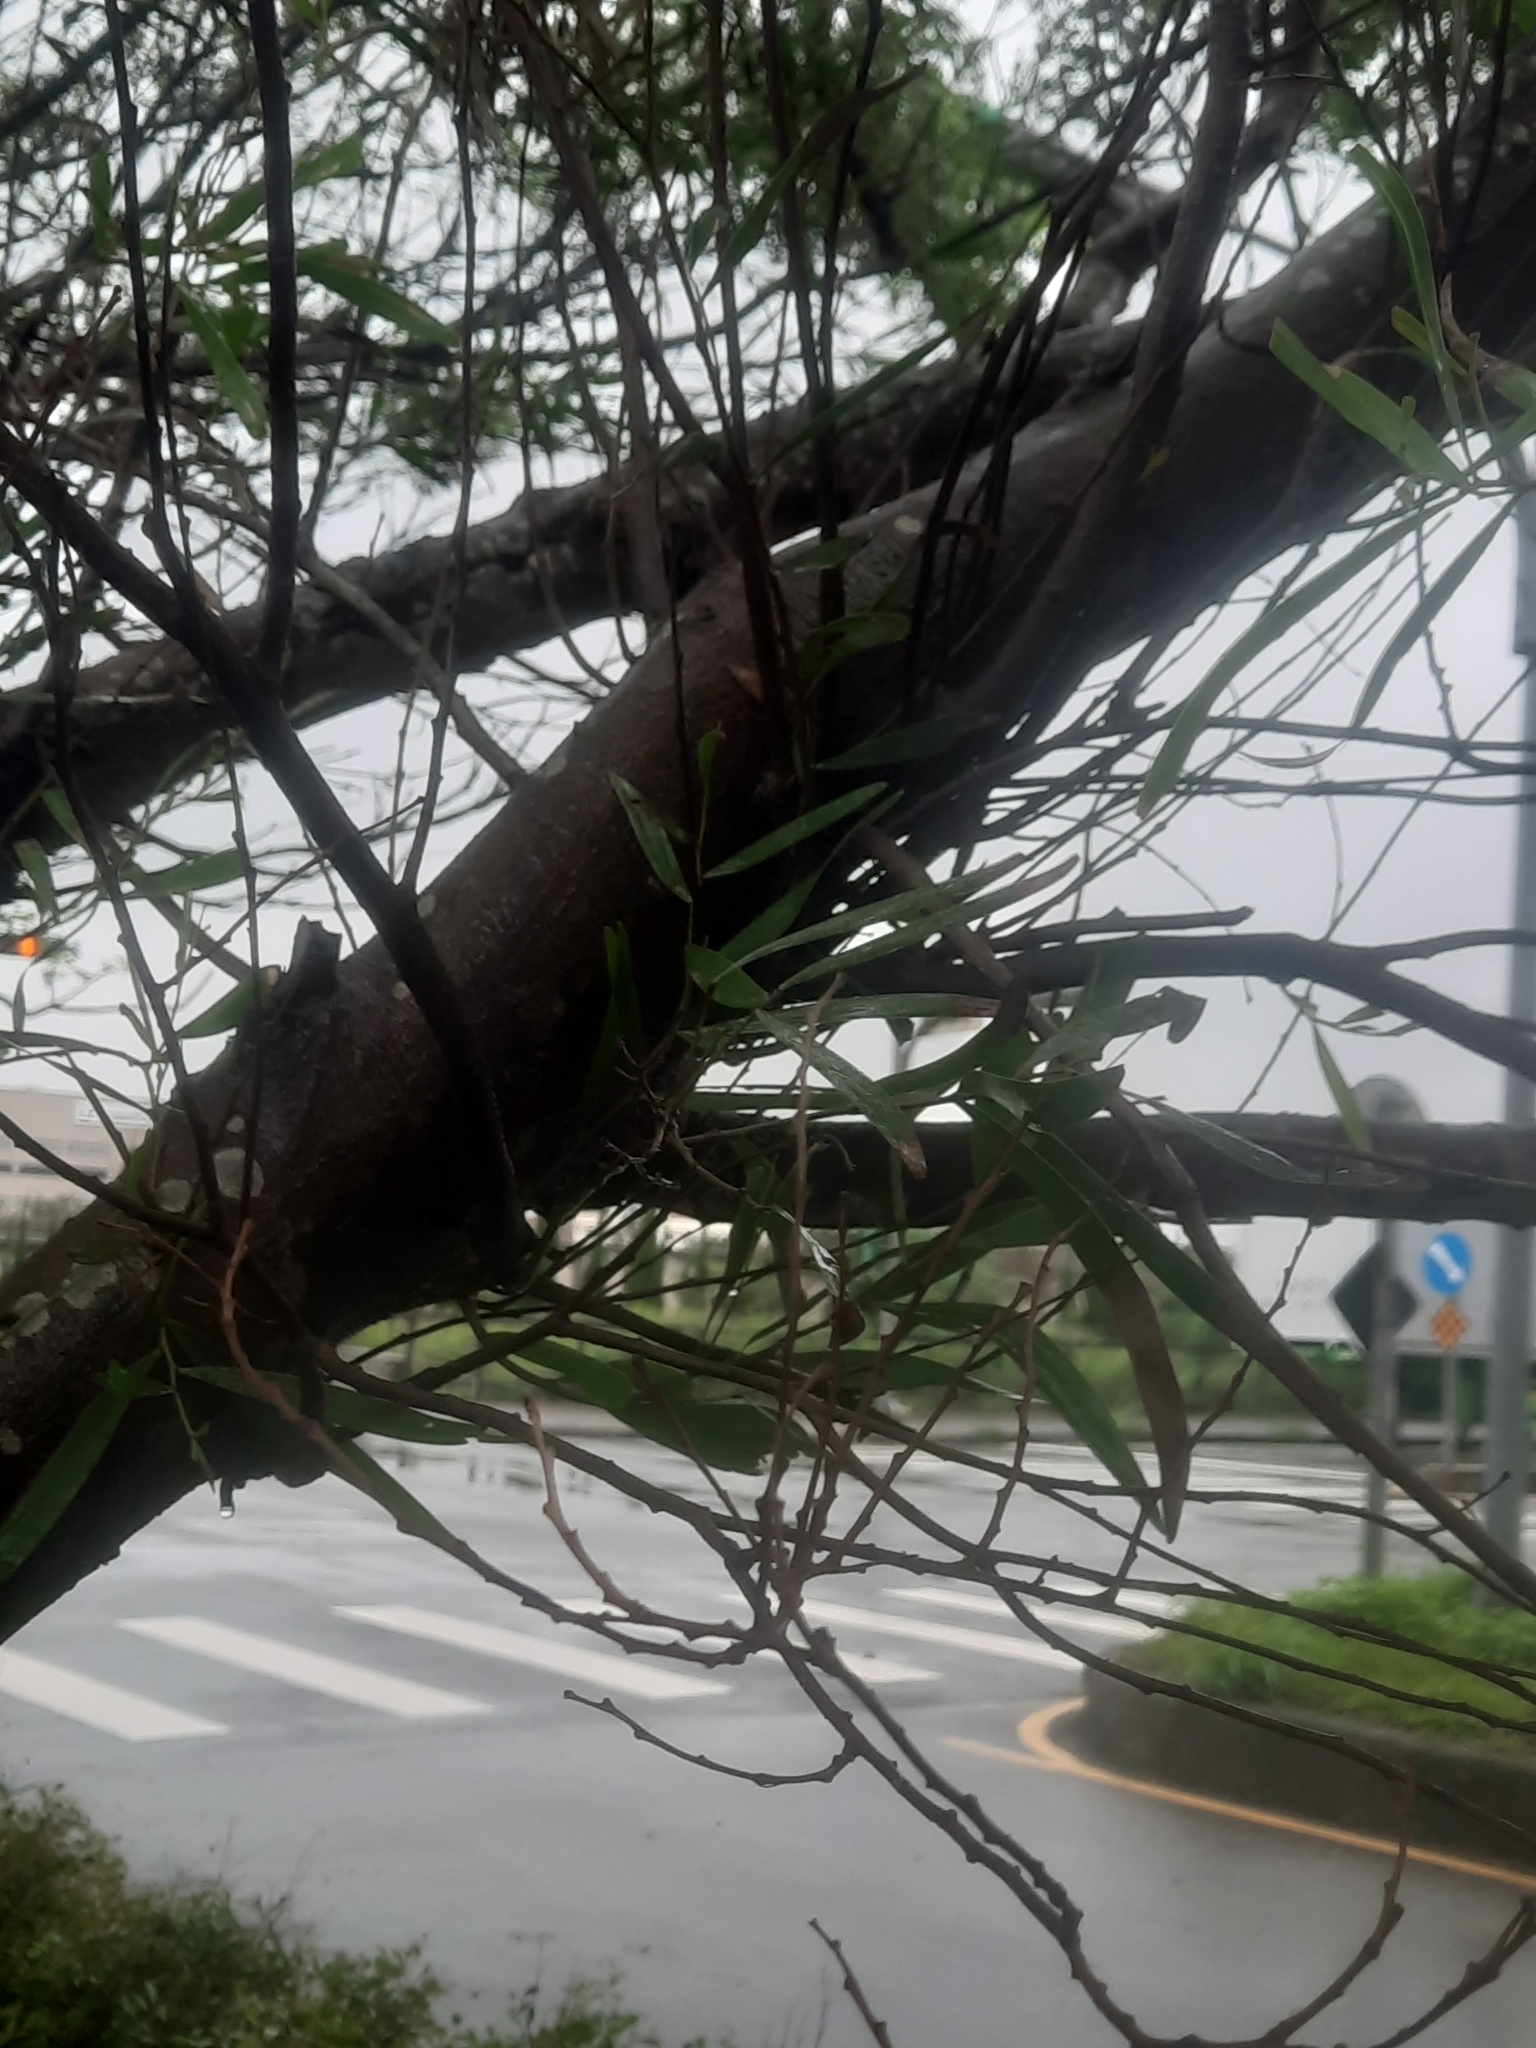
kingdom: Plantae
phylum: Tracheophyta
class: Magnoliopsida
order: Fabales
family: Fabaceae
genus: Acacia
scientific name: Acacia confusa
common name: Formosan koa
